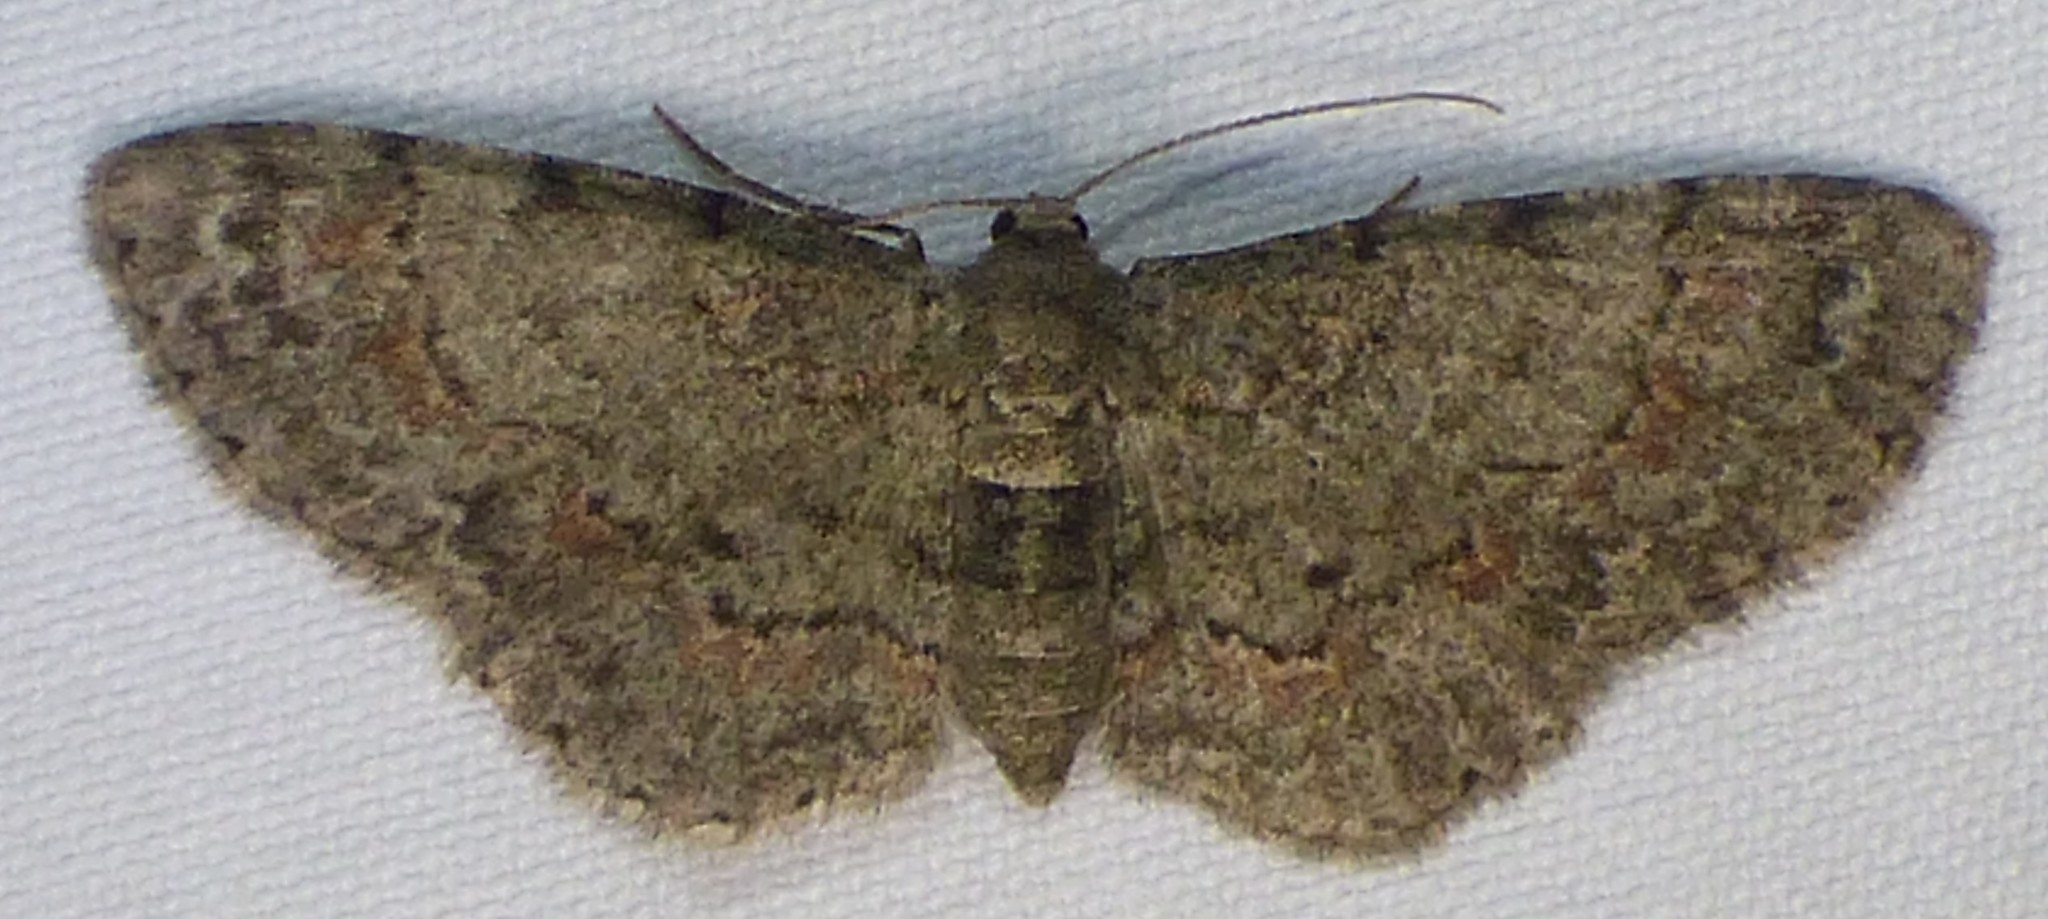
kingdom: Animalia
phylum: Arthropoda
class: Insecta
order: Lepidoptera
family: Geometridae
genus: Glenoides
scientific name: Glenoides texanaria
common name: Texas gray
